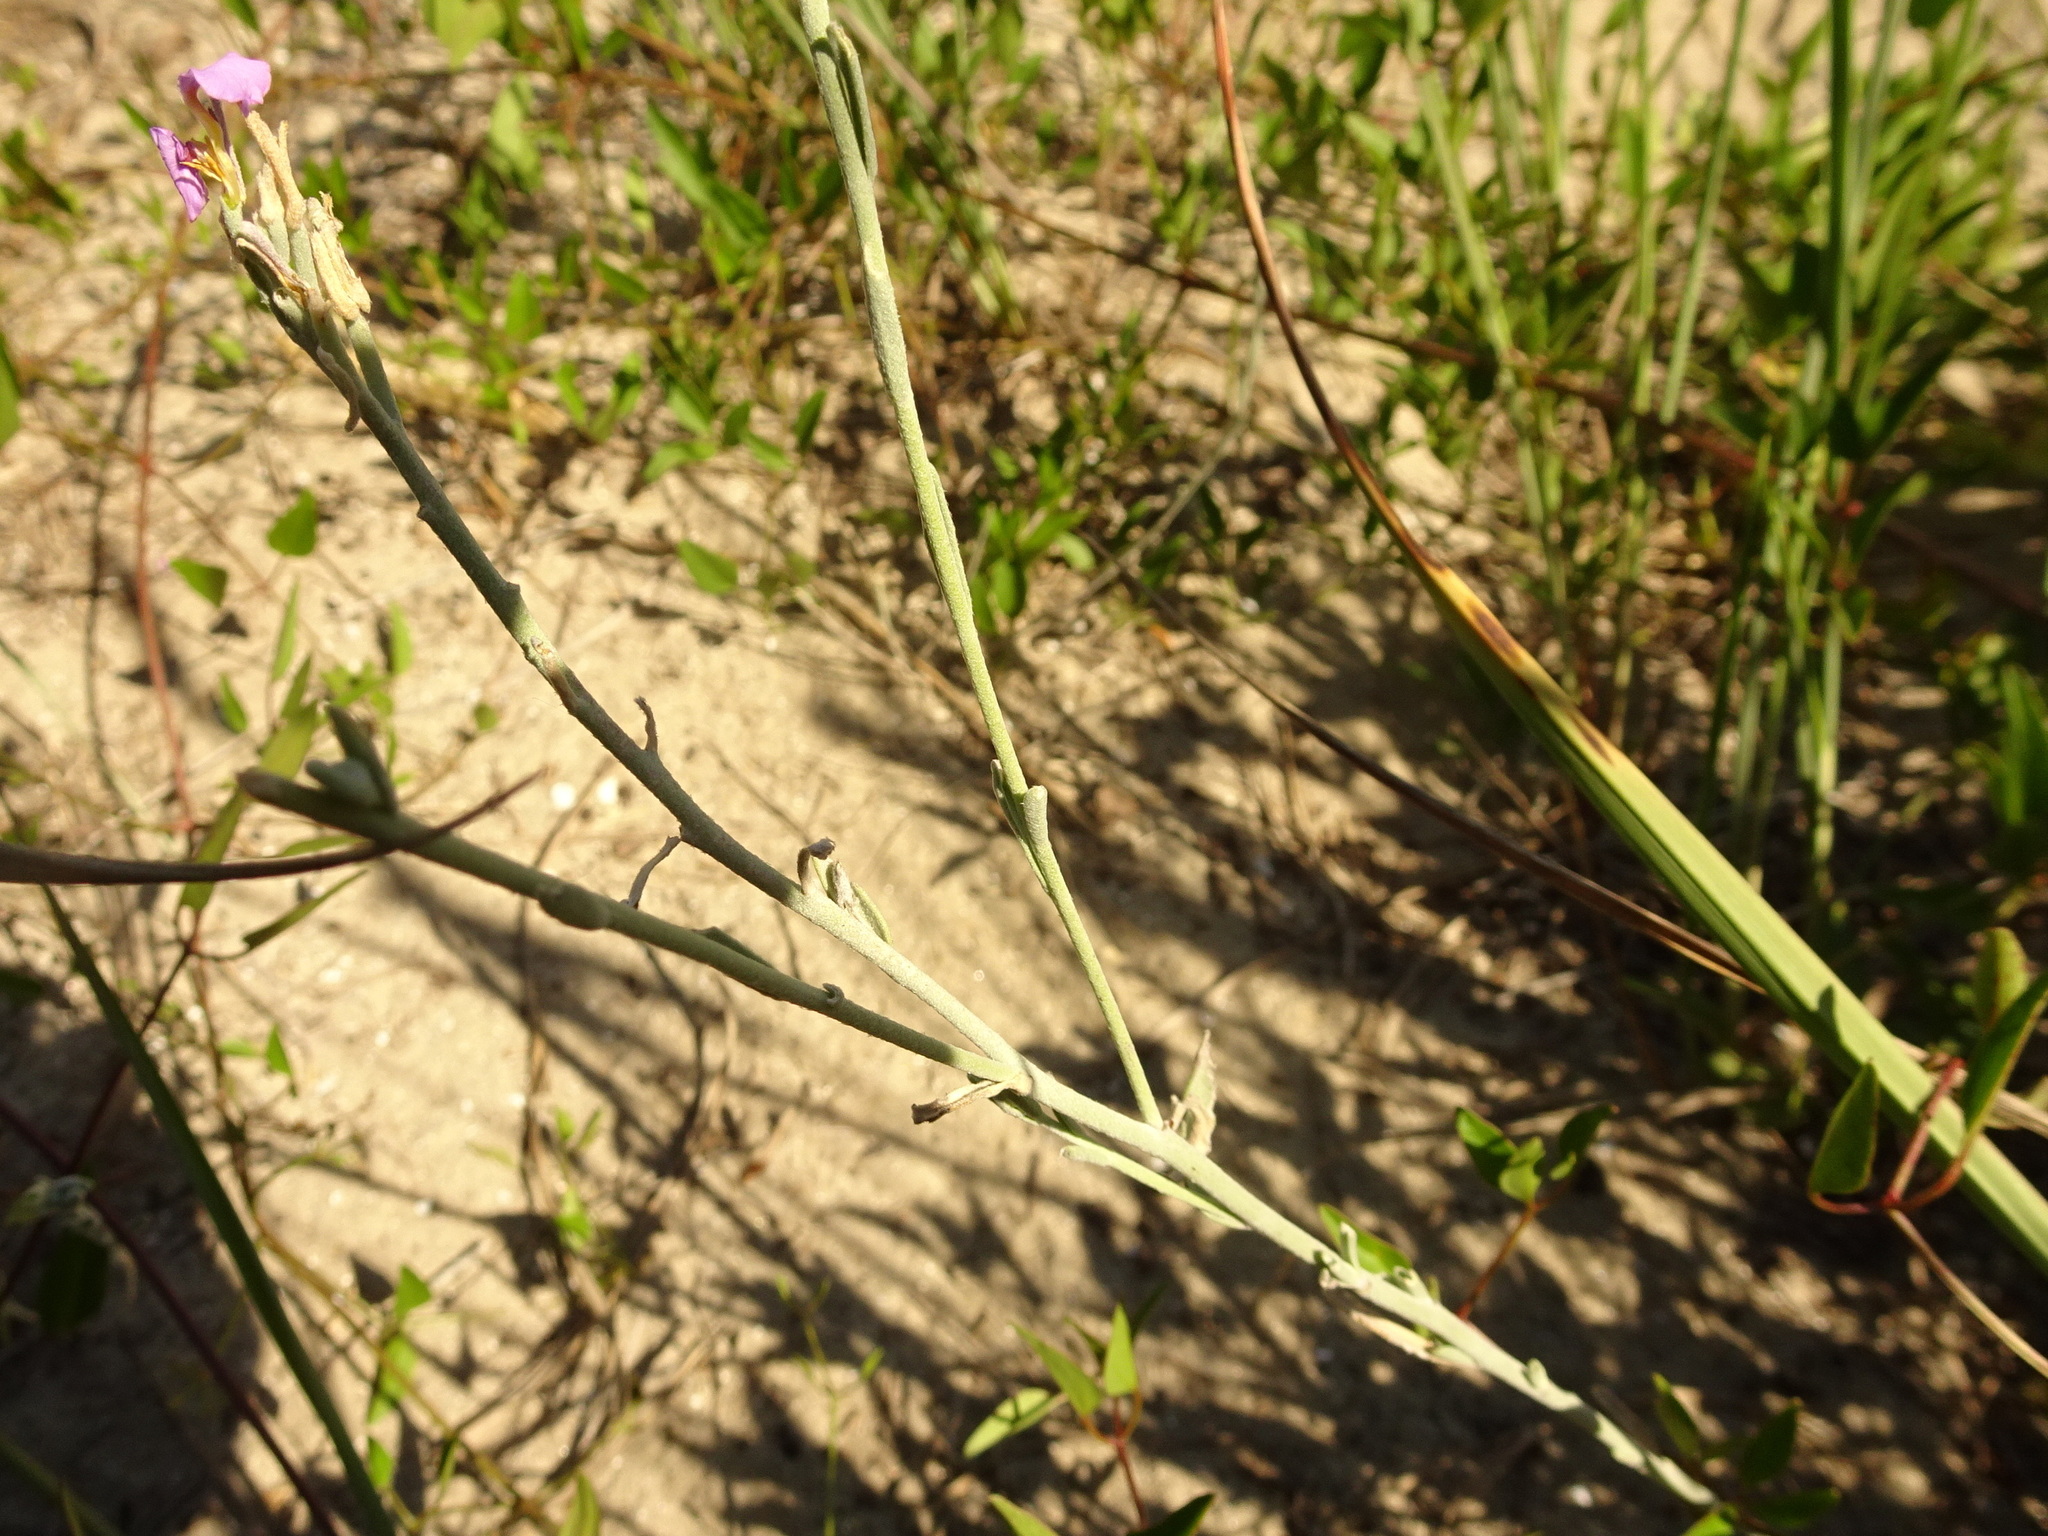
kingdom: Plantae
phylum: Tracheophyta
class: Magnoliopsida
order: Brassicales
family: Brassicaceae
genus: Marcuskochia
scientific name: Marcuskochia littorea
